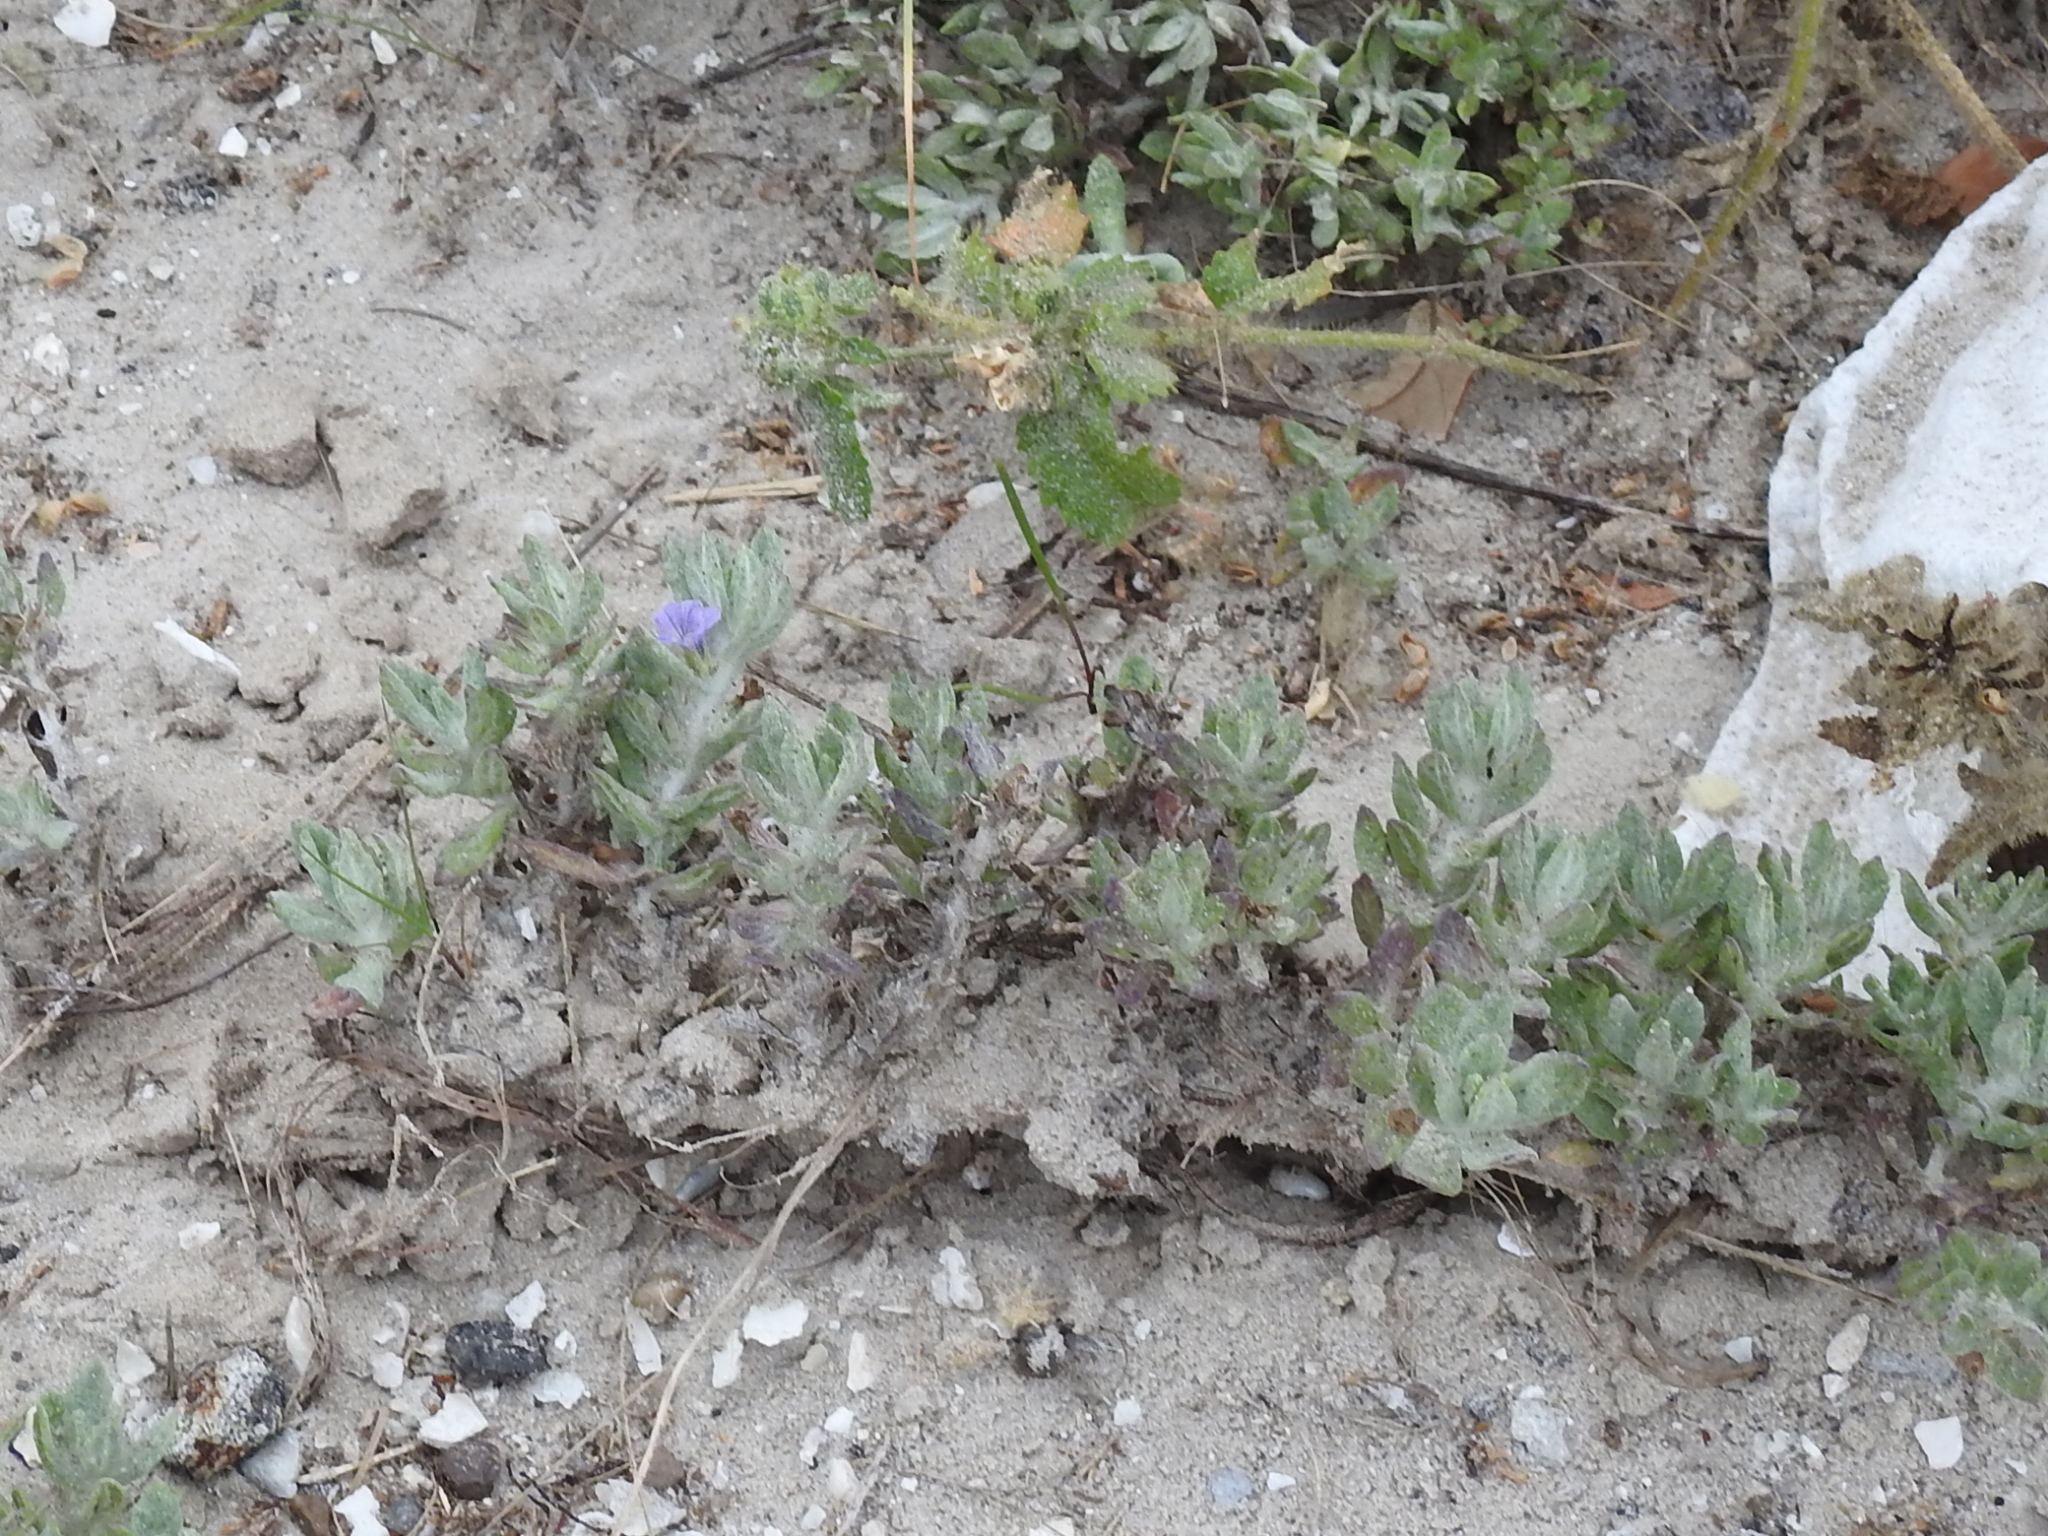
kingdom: Plantae
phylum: Tracheophyta
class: Magnoliopsida
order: Lamiales
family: Plantaginaceae
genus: Stemodia
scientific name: Stemodia lanata
